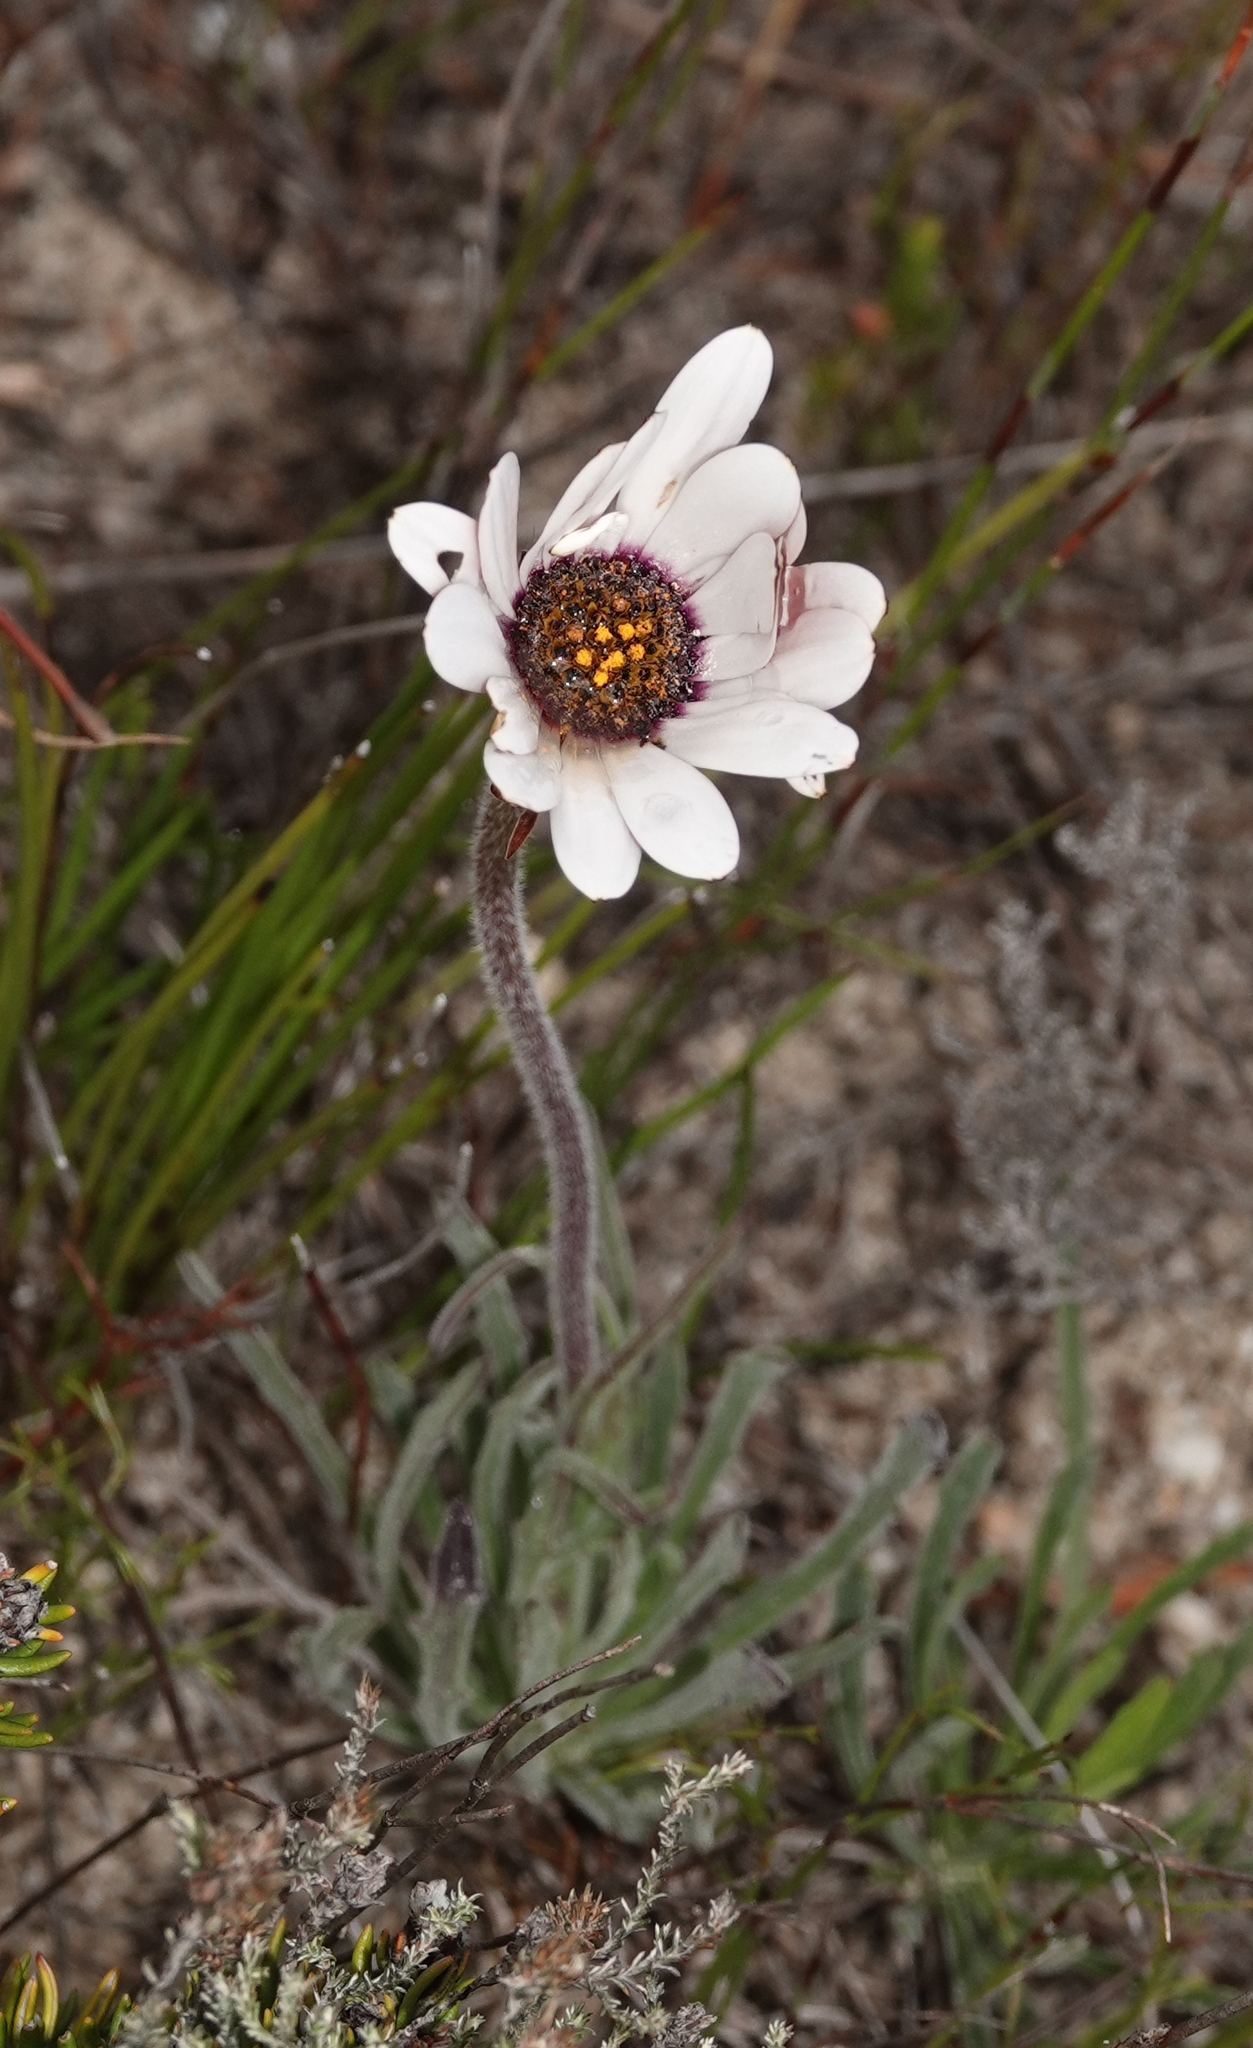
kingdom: Plantae
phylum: Tracheophyta
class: Magnoliopsida
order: Asterales
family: Asteraceae
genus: Dimorphotheca
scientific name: Dimorphotheca nudicaulis
